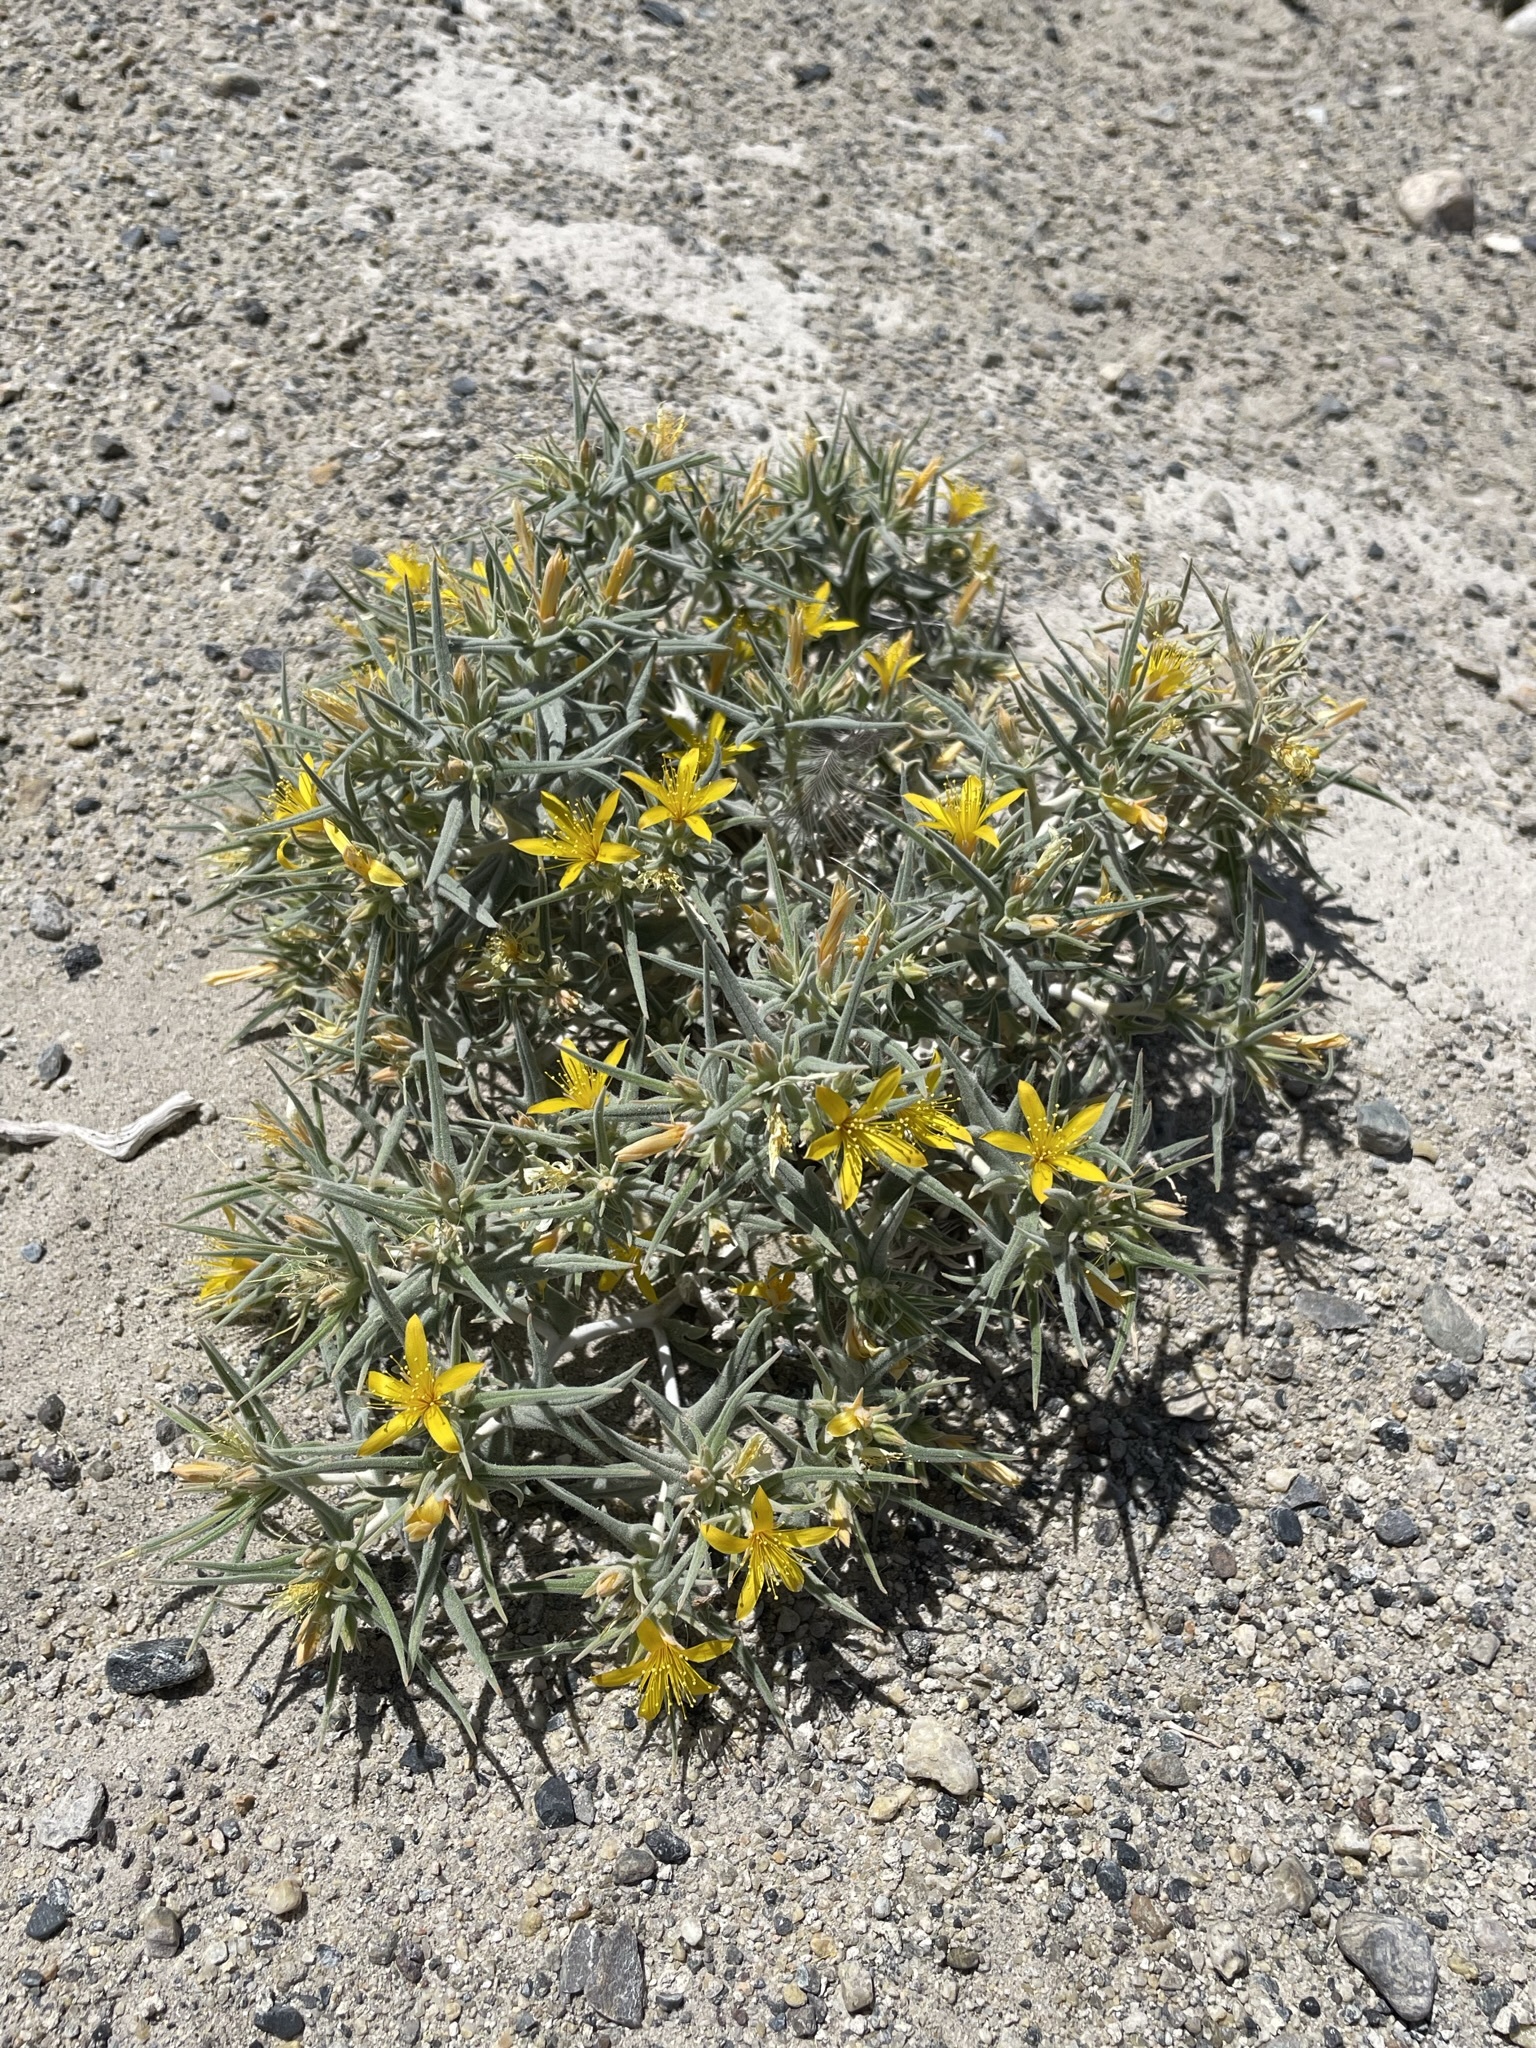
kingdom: Plantae
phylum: Tracheophyta
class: Magnoliopsida
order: Cornales
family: Loasaceae
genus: Mentzelia
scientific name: Mentzelia torreyi
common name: Torrey's blazingstar
